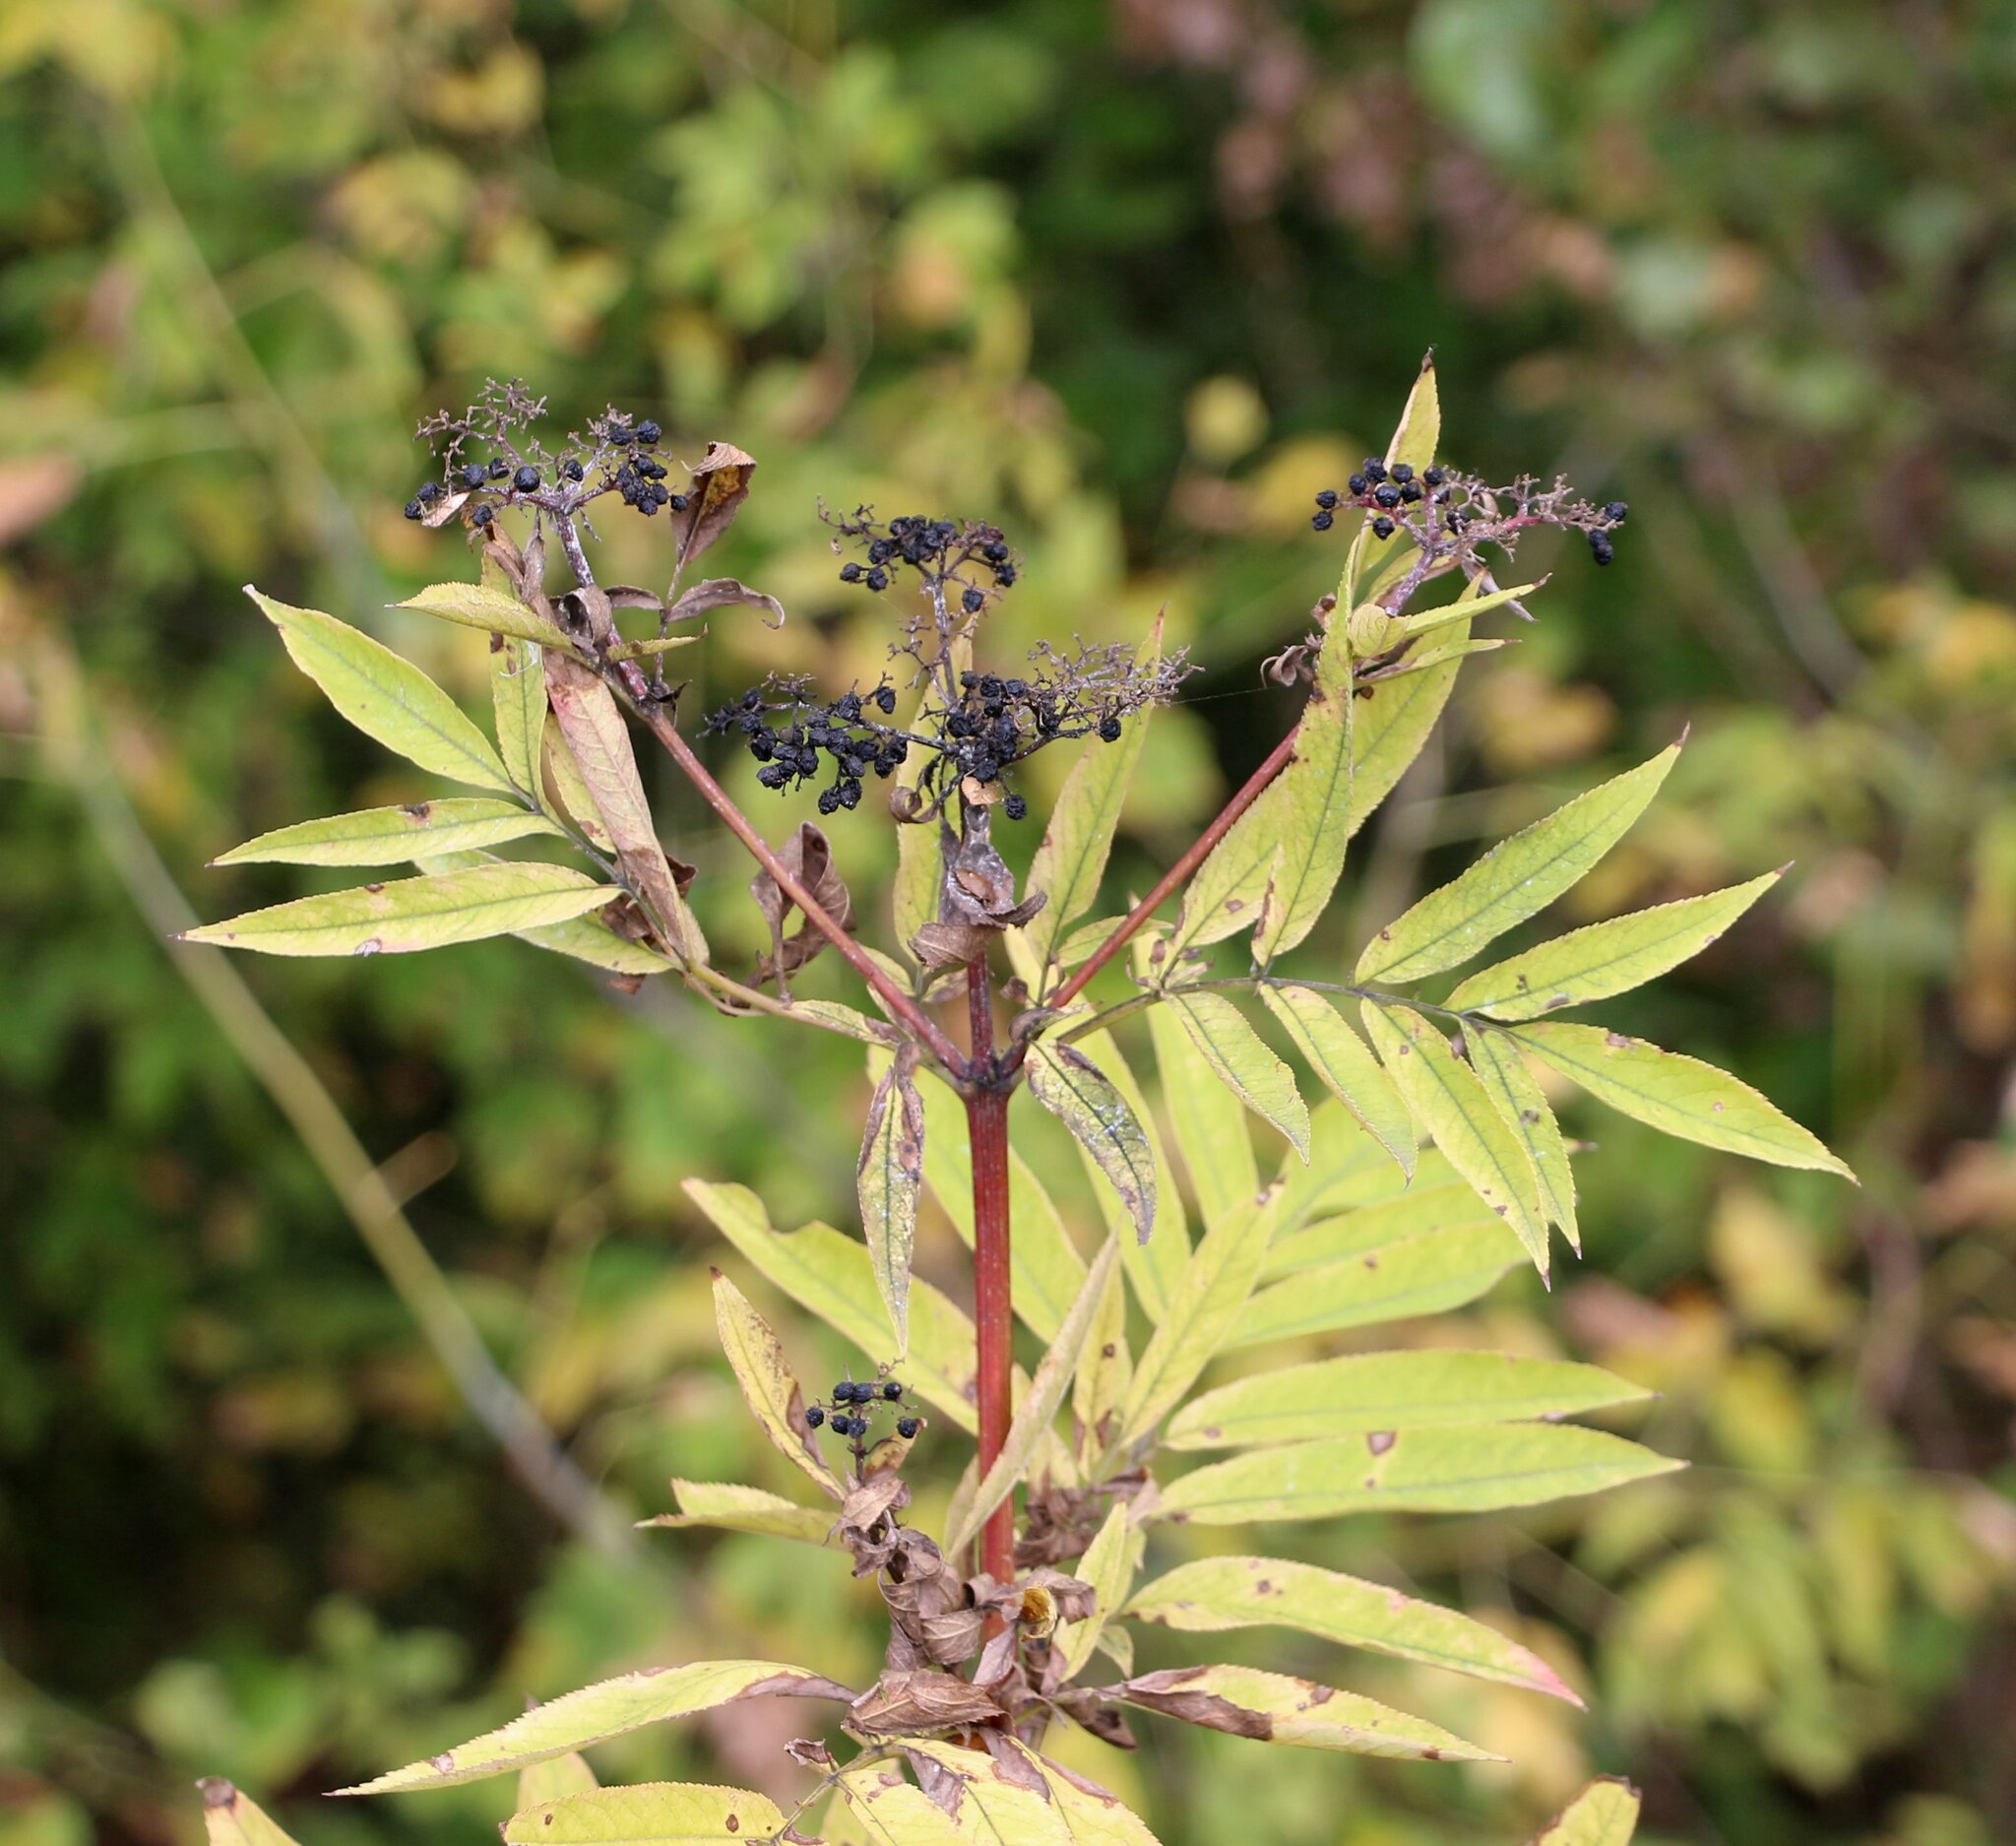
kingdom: Plantae
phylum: Tracheophyta
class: Magnoliopsida
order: Dipsacales
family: Viburnaceae
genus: Sambucus
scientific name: Sambucus ebulus
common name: Dwarf elder
